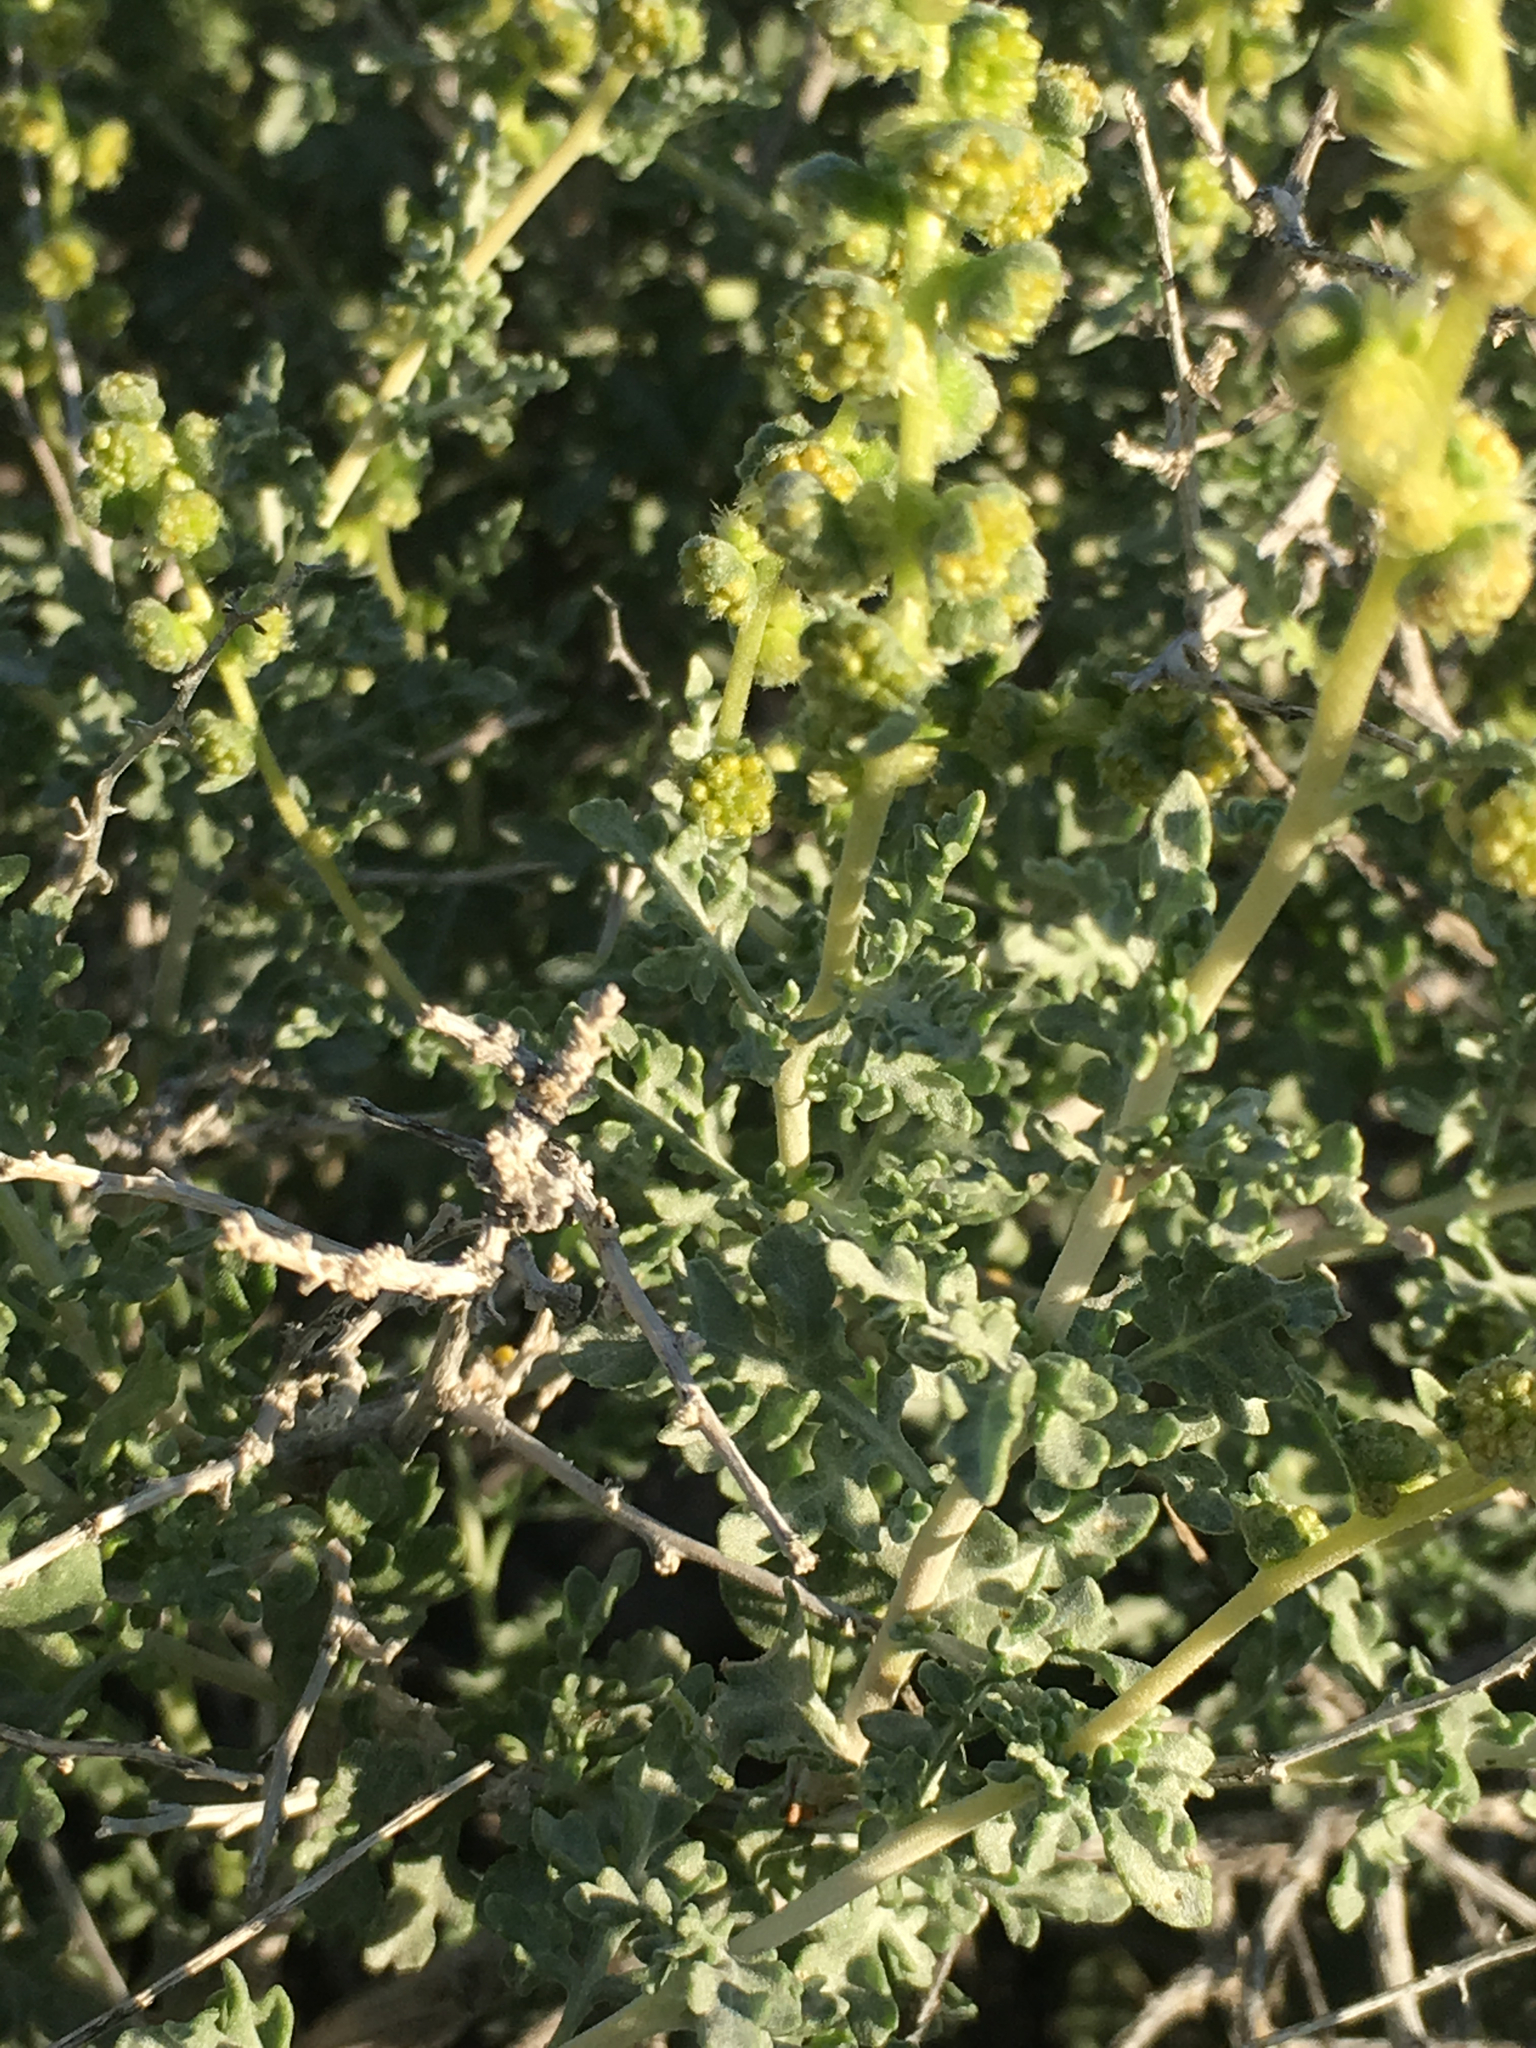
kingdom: Plantae
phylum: Tracheophyta
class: Magnoliopsida
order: Asterales
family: Asteraceae
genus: Ambrosia
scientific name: Ambrosia dumosa
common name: Bur-sage
